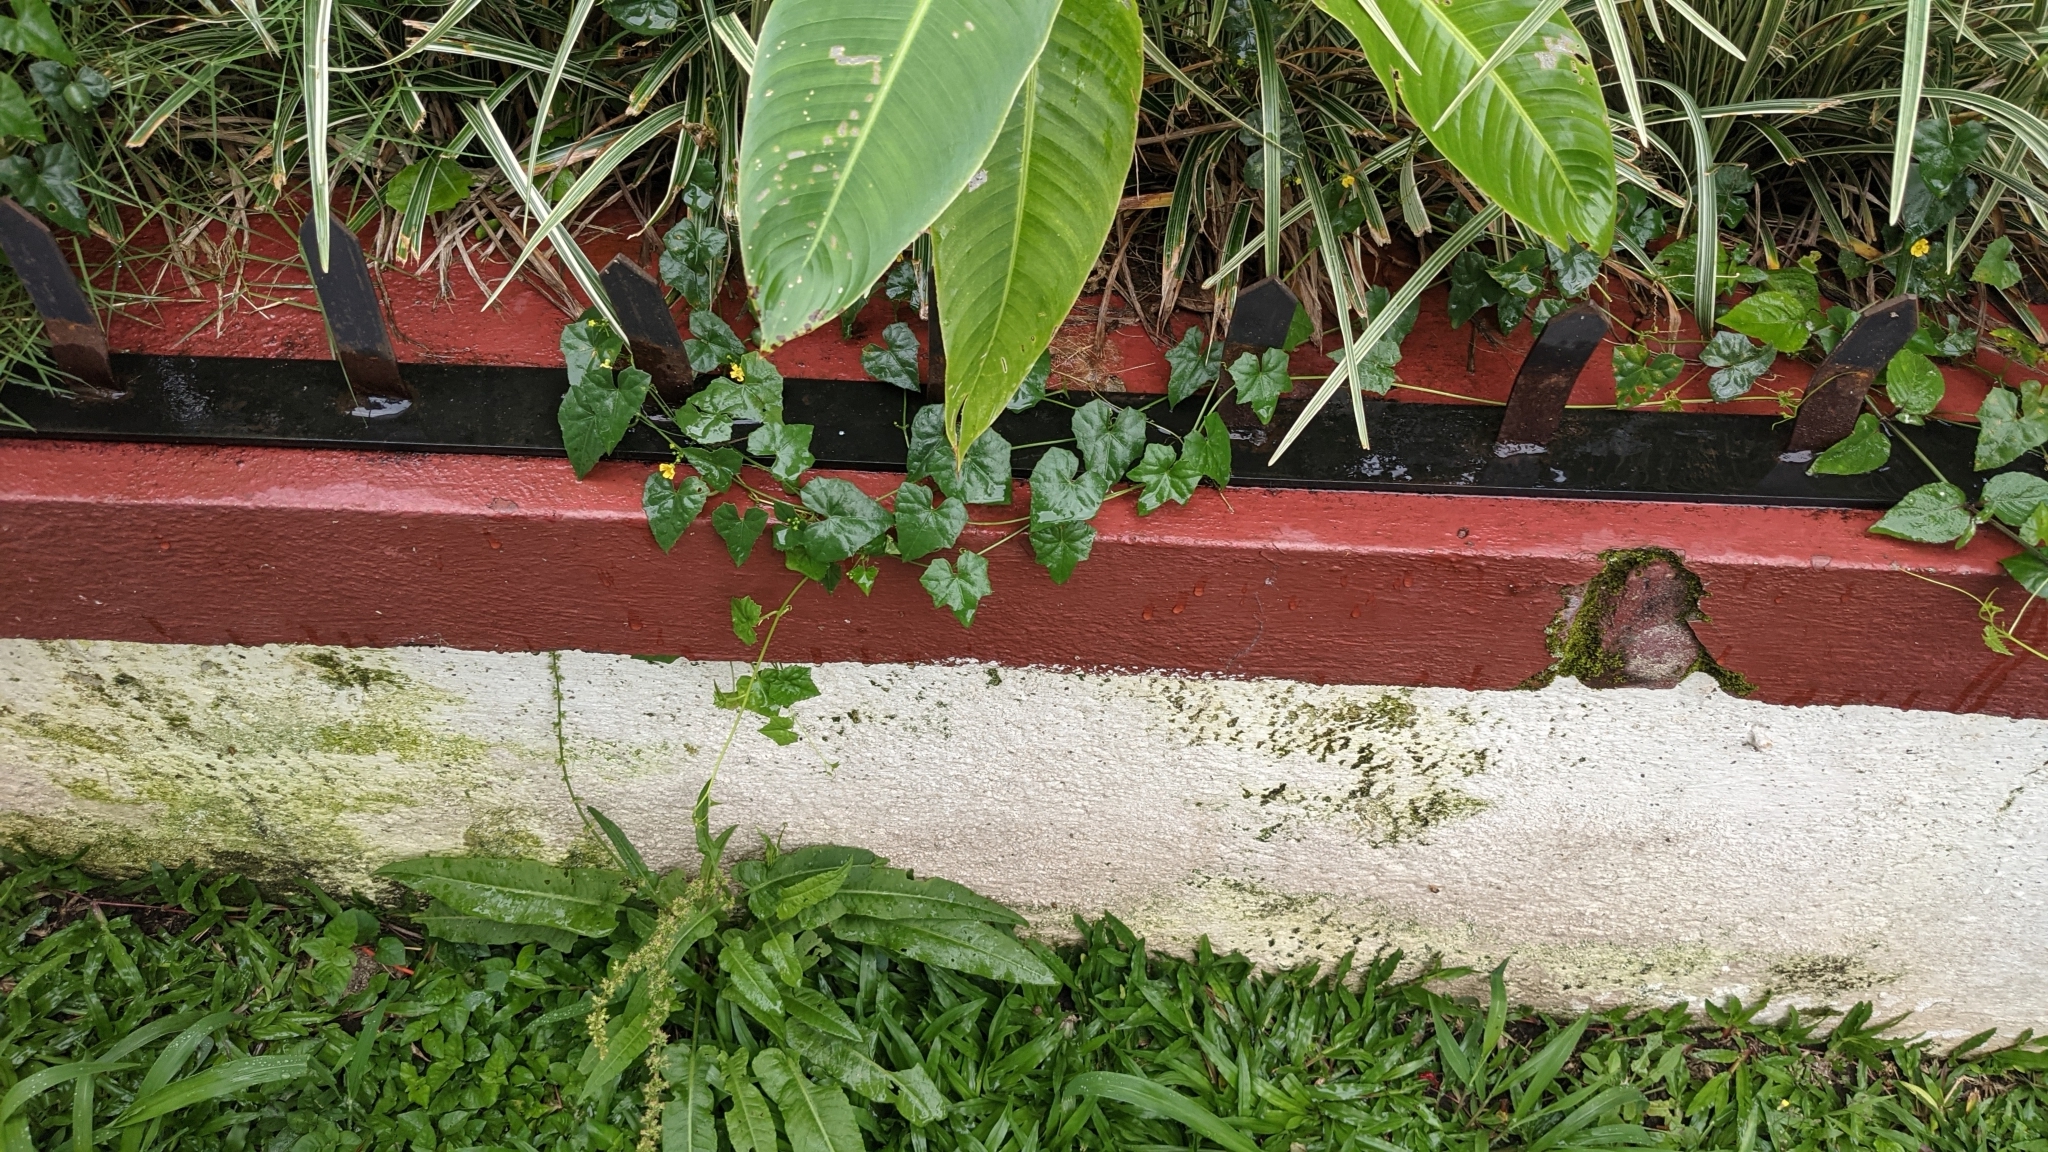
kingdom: Plantae
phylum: Tracheophyta
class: Magnoliopsida
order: Cucurbitales
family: Cucurbitaceae
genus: Melothria
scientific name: Melothria pendula
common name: Creeping-cucumber
